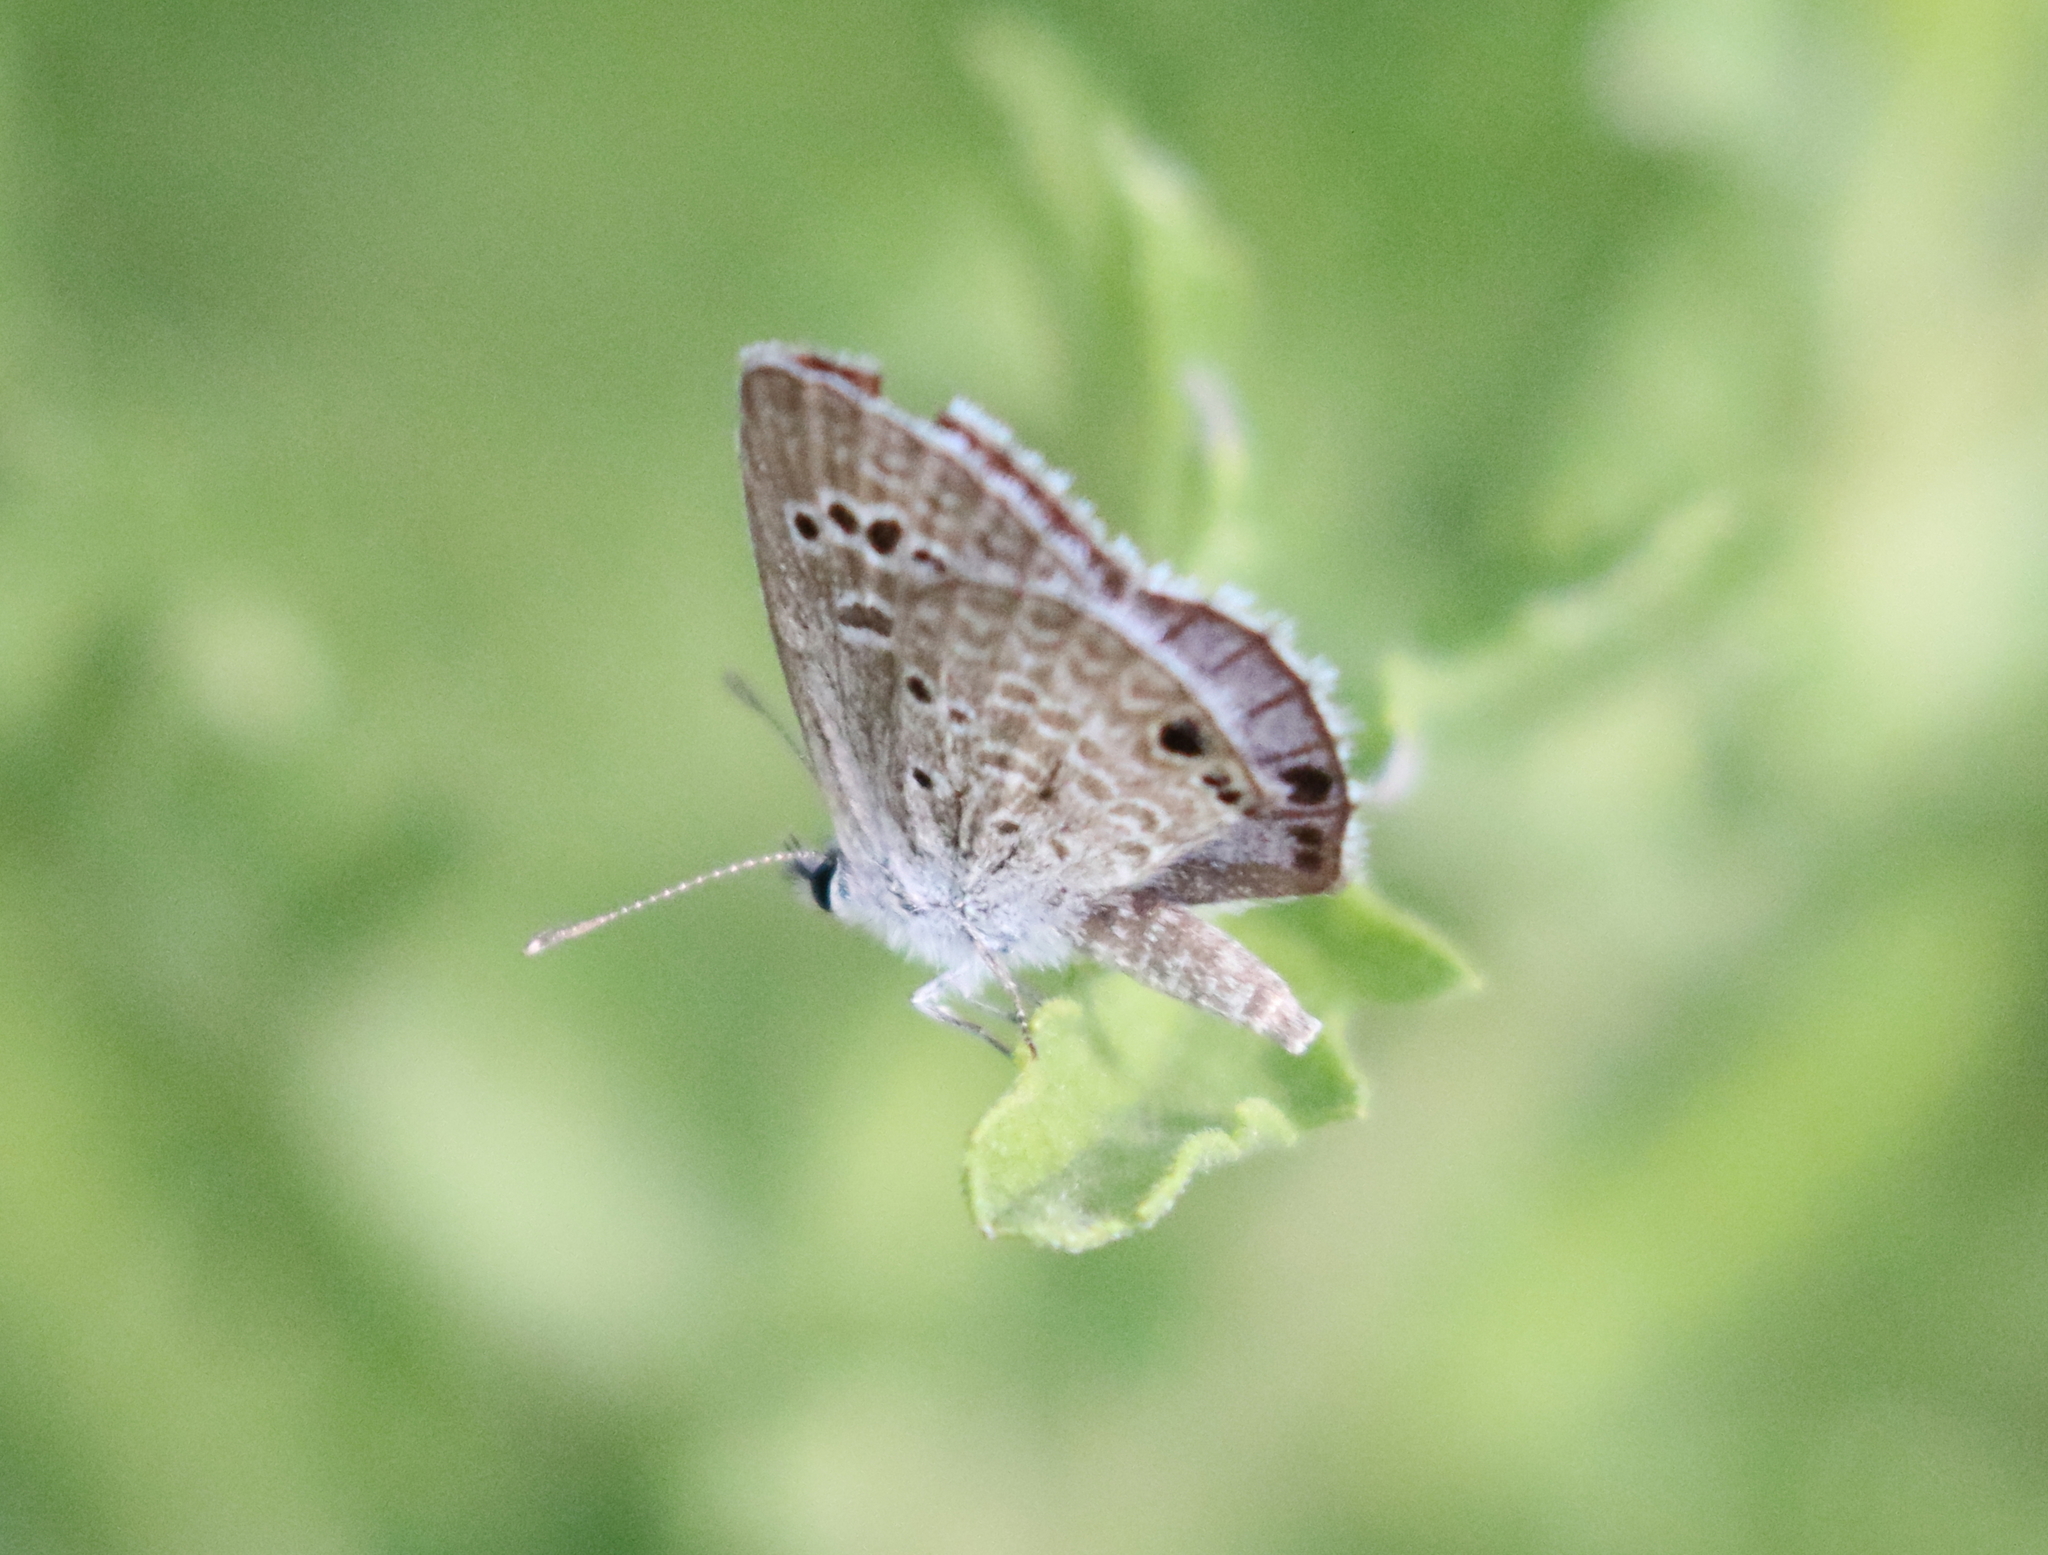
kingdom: Animalia
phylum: Arthropoda
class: Insecta
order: Lepidoptera
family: Lycaenidae
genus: Echinargus
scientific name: Echinargus isola
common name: Reakirt's blue
